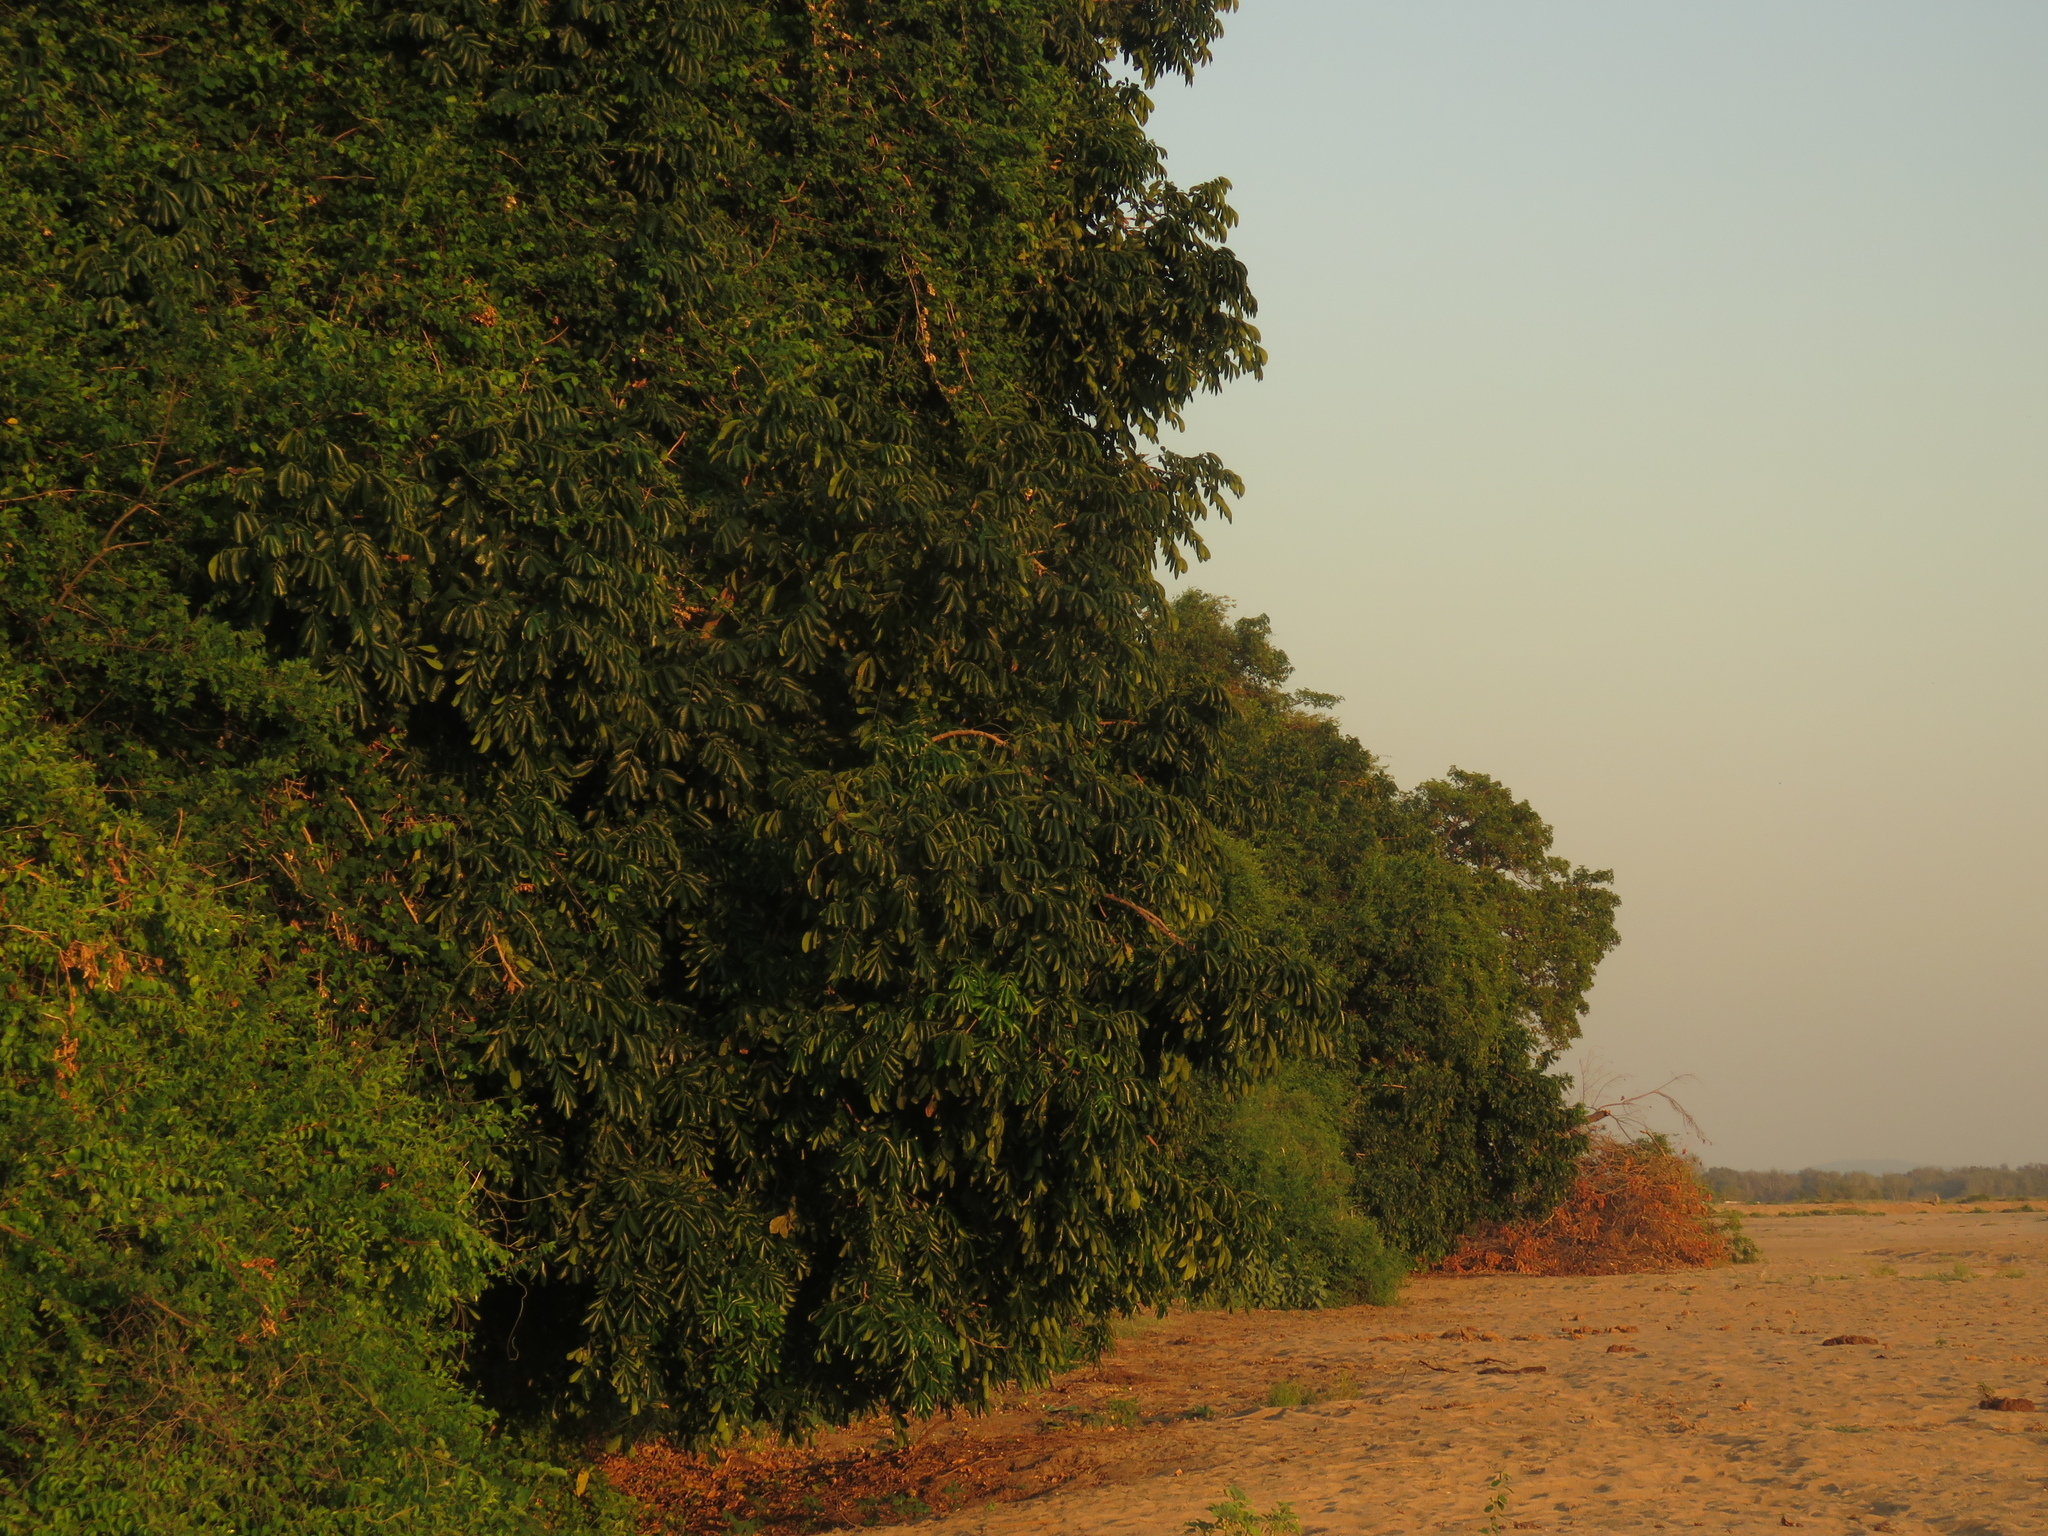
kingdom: Plantae
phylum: Tracheophyta
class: Magnoliopsida
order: Sapindales
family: Meliaceae
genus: Trichilia
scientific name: Trichilia emetica
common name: Christmas-bells
